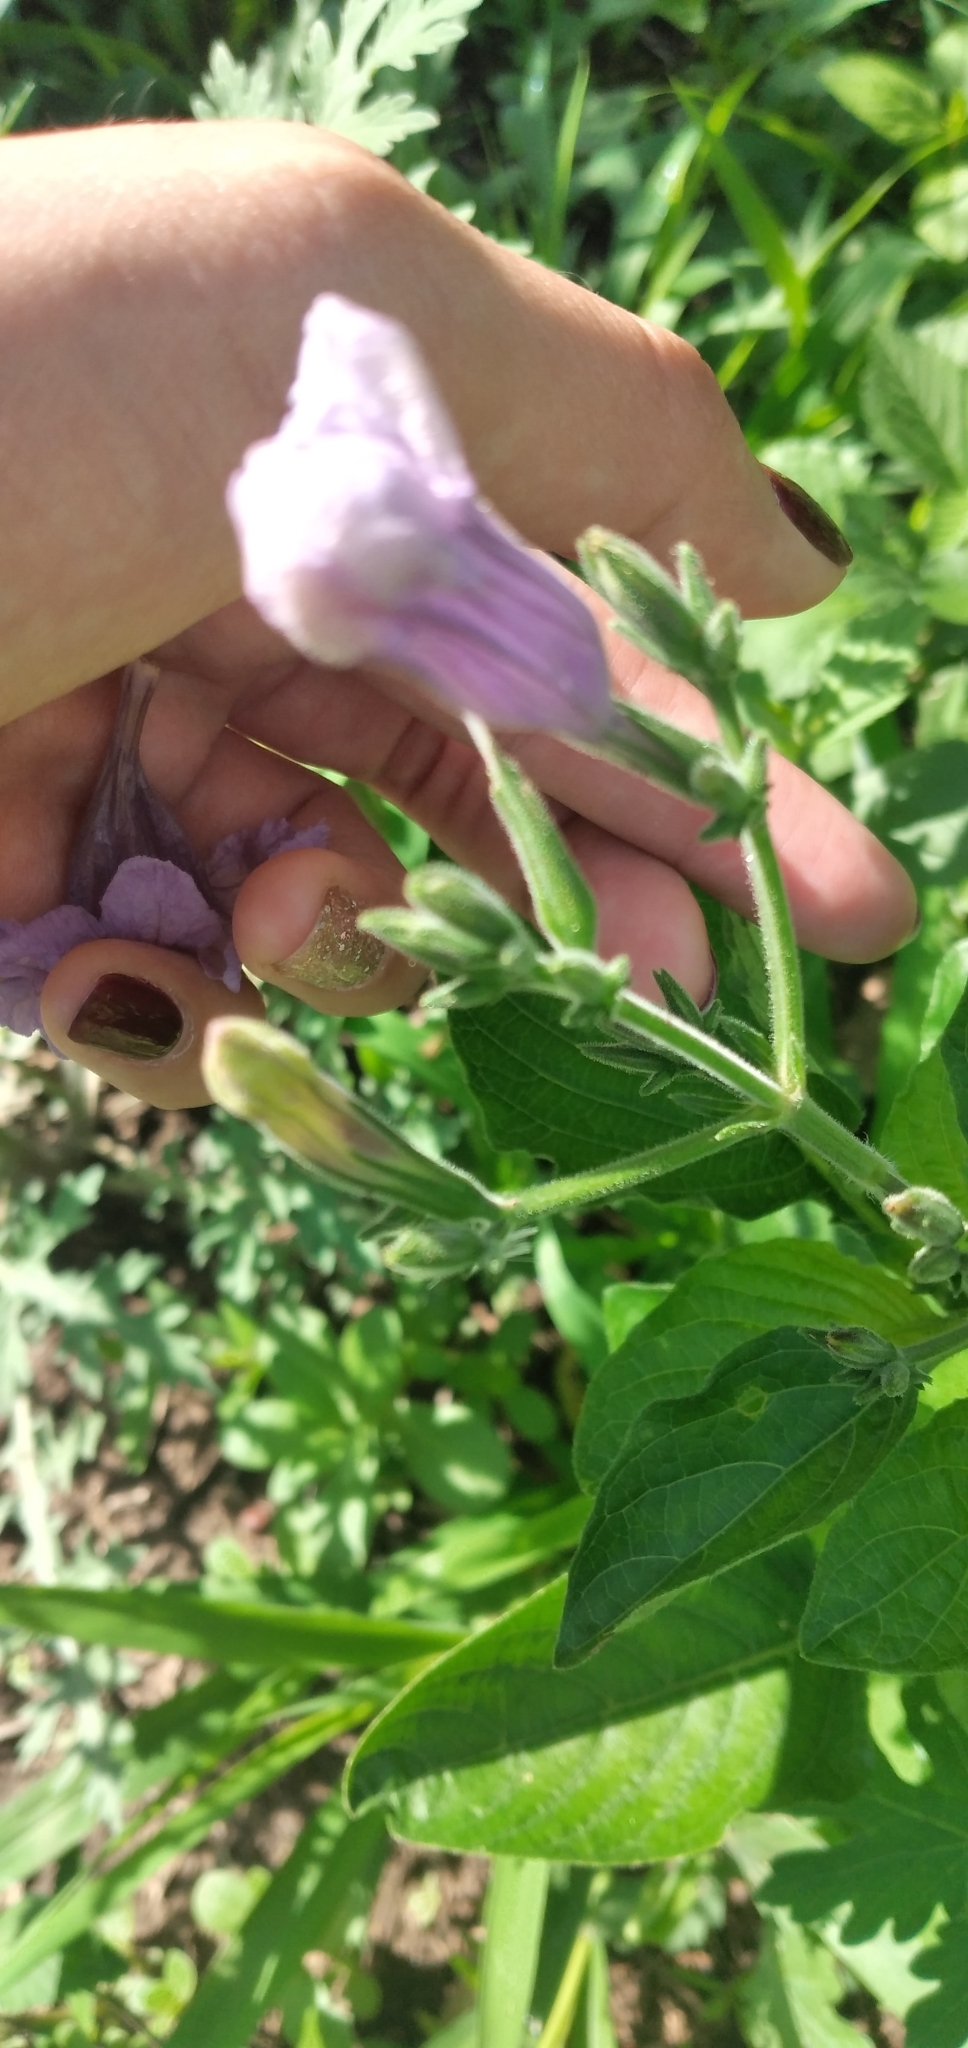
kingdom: Plantae
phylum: Tracheophyta
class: Magnoliopsida
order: Lamiales
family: Acanthaceae
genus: Ruellia
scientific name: Ruellia ciliatiflora
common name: Hairyflower wild petunia
